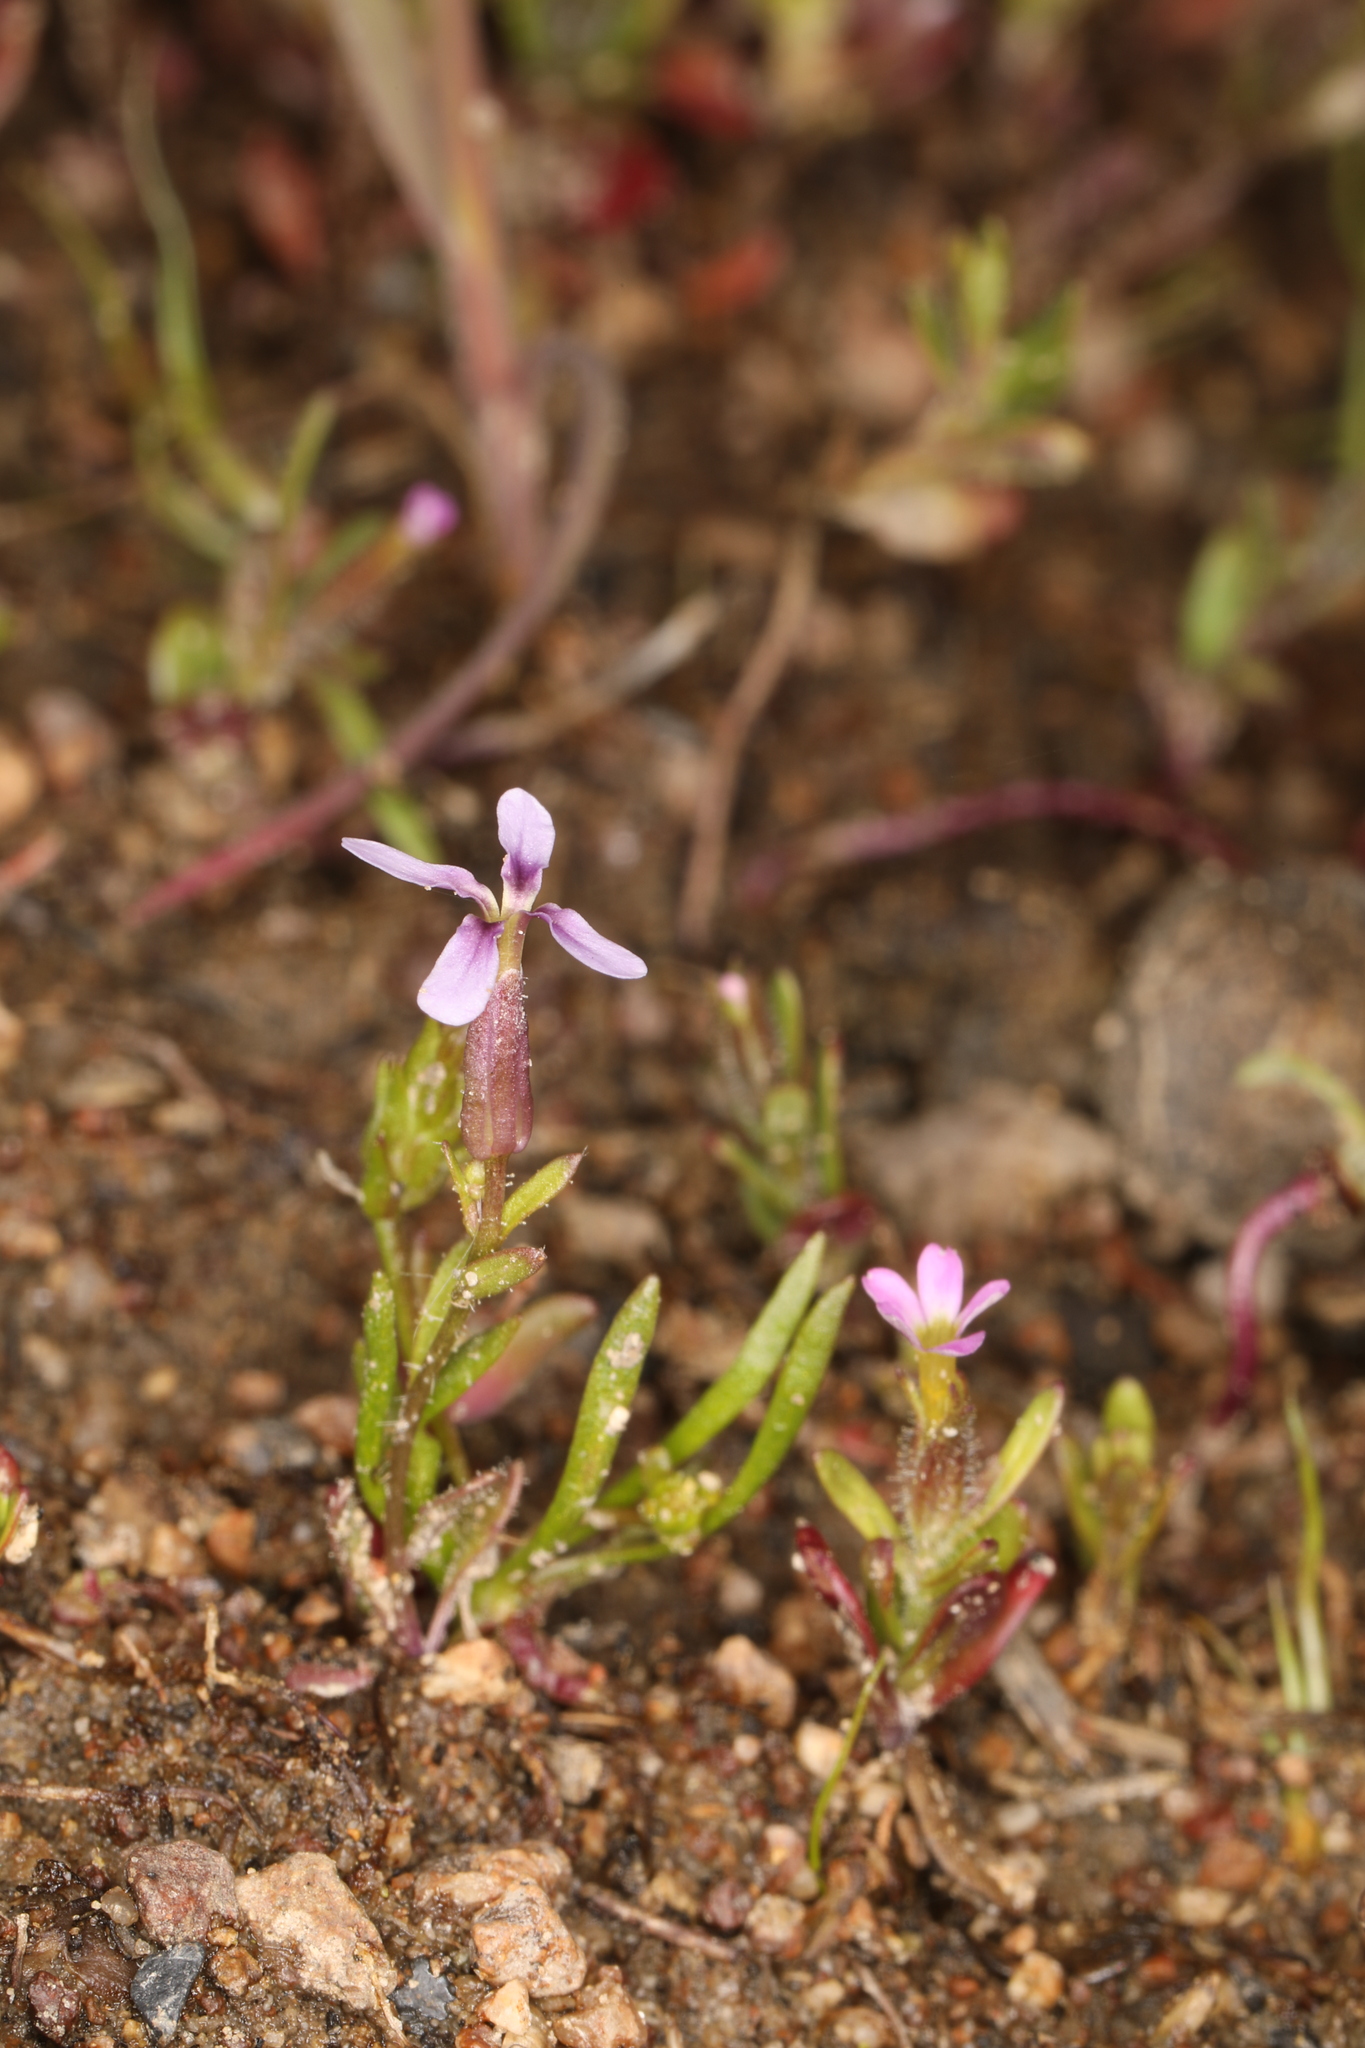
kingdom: Plantae
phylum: Tracheophyta
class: Magnoliopsida
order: Brassicales
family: Brassicaceae
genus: Chorispora
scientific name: Chorispora tenella
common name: Crossflower
